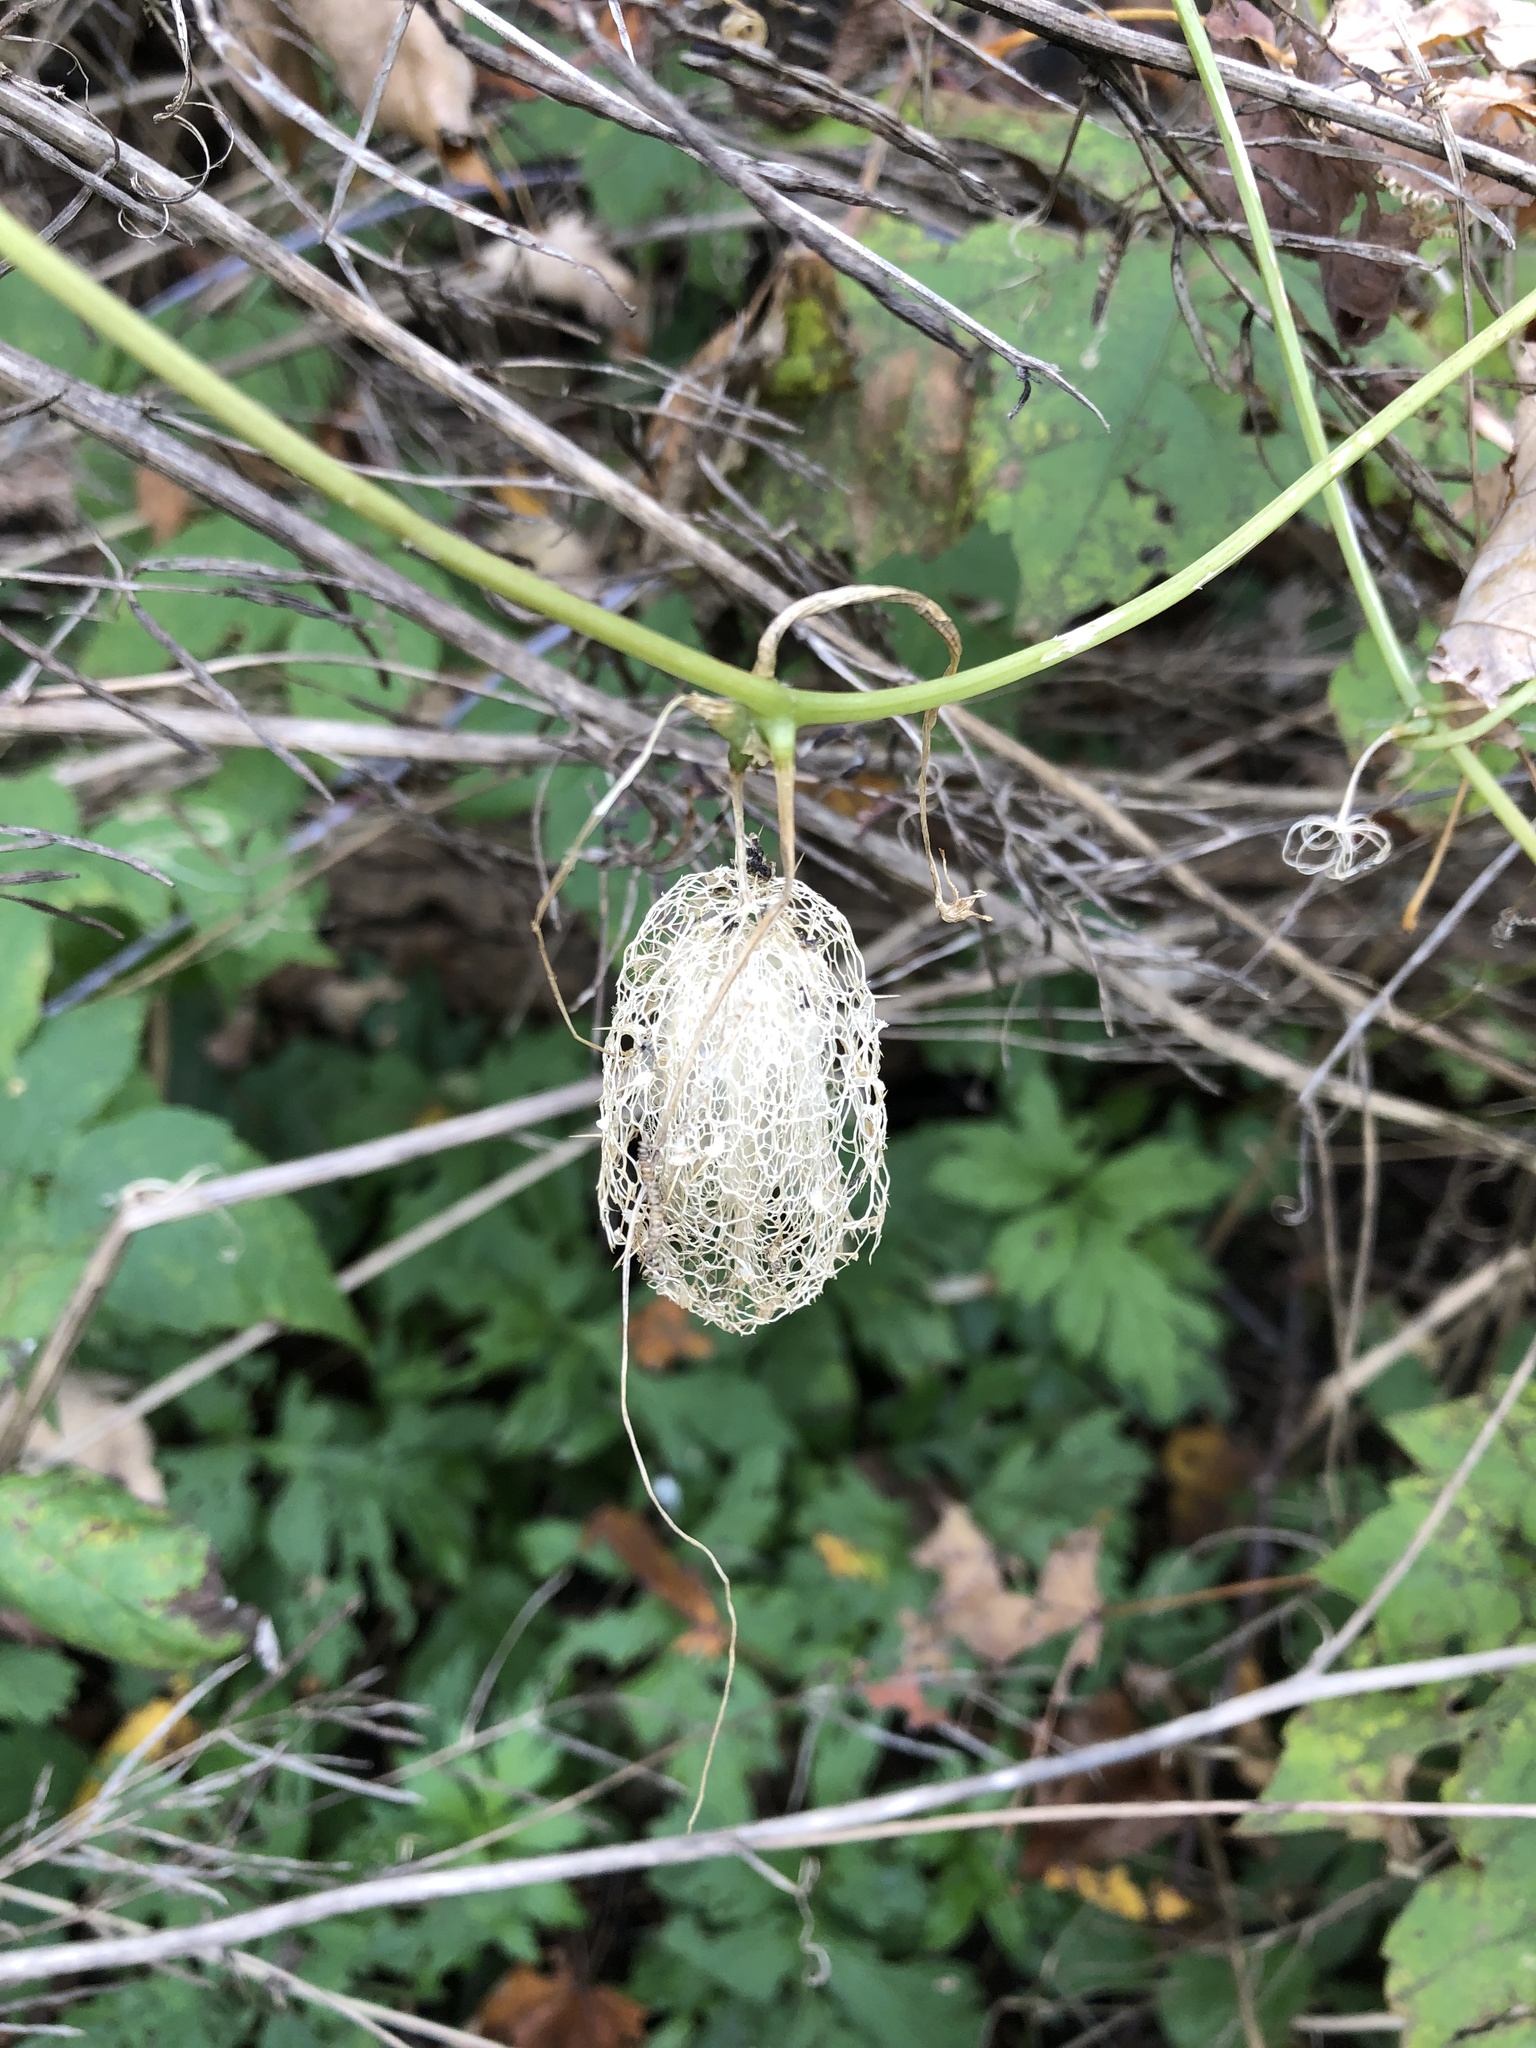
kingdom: Plantae
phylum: Tracheophyta
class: Magnoliopsida
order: Cucurbitales
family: Cucurbitaceae
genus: Echinocystis
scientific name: Echinocystis lobata
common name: Wild cucumber
